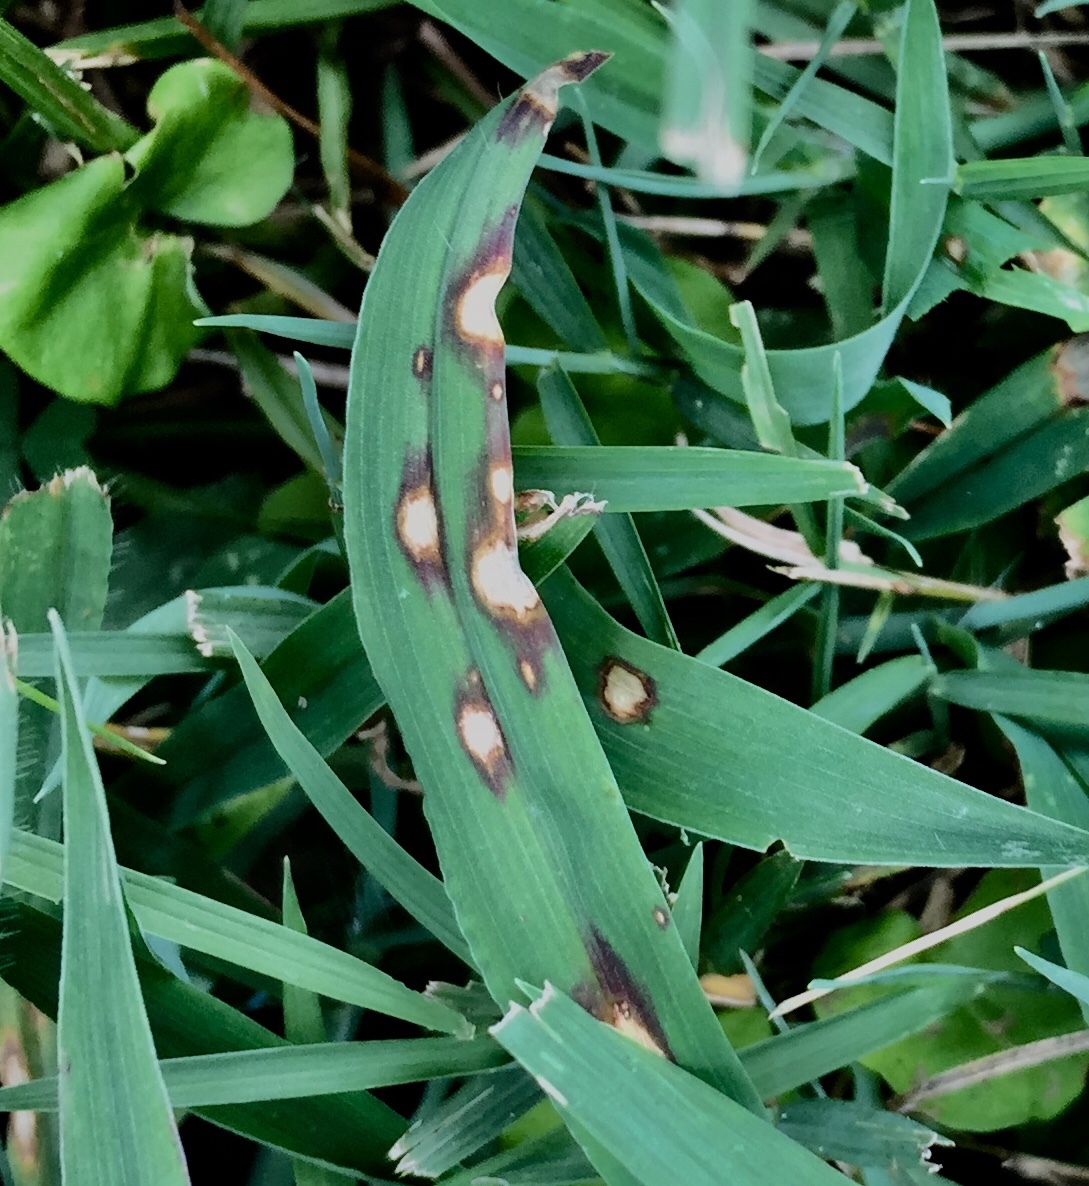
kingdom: Fungi
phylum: Ascomycota
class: Dothideomycetes
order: Pleosporales
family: Pleosporaceae
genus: Bipolaris
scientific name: Bipolaris sorokiniana
